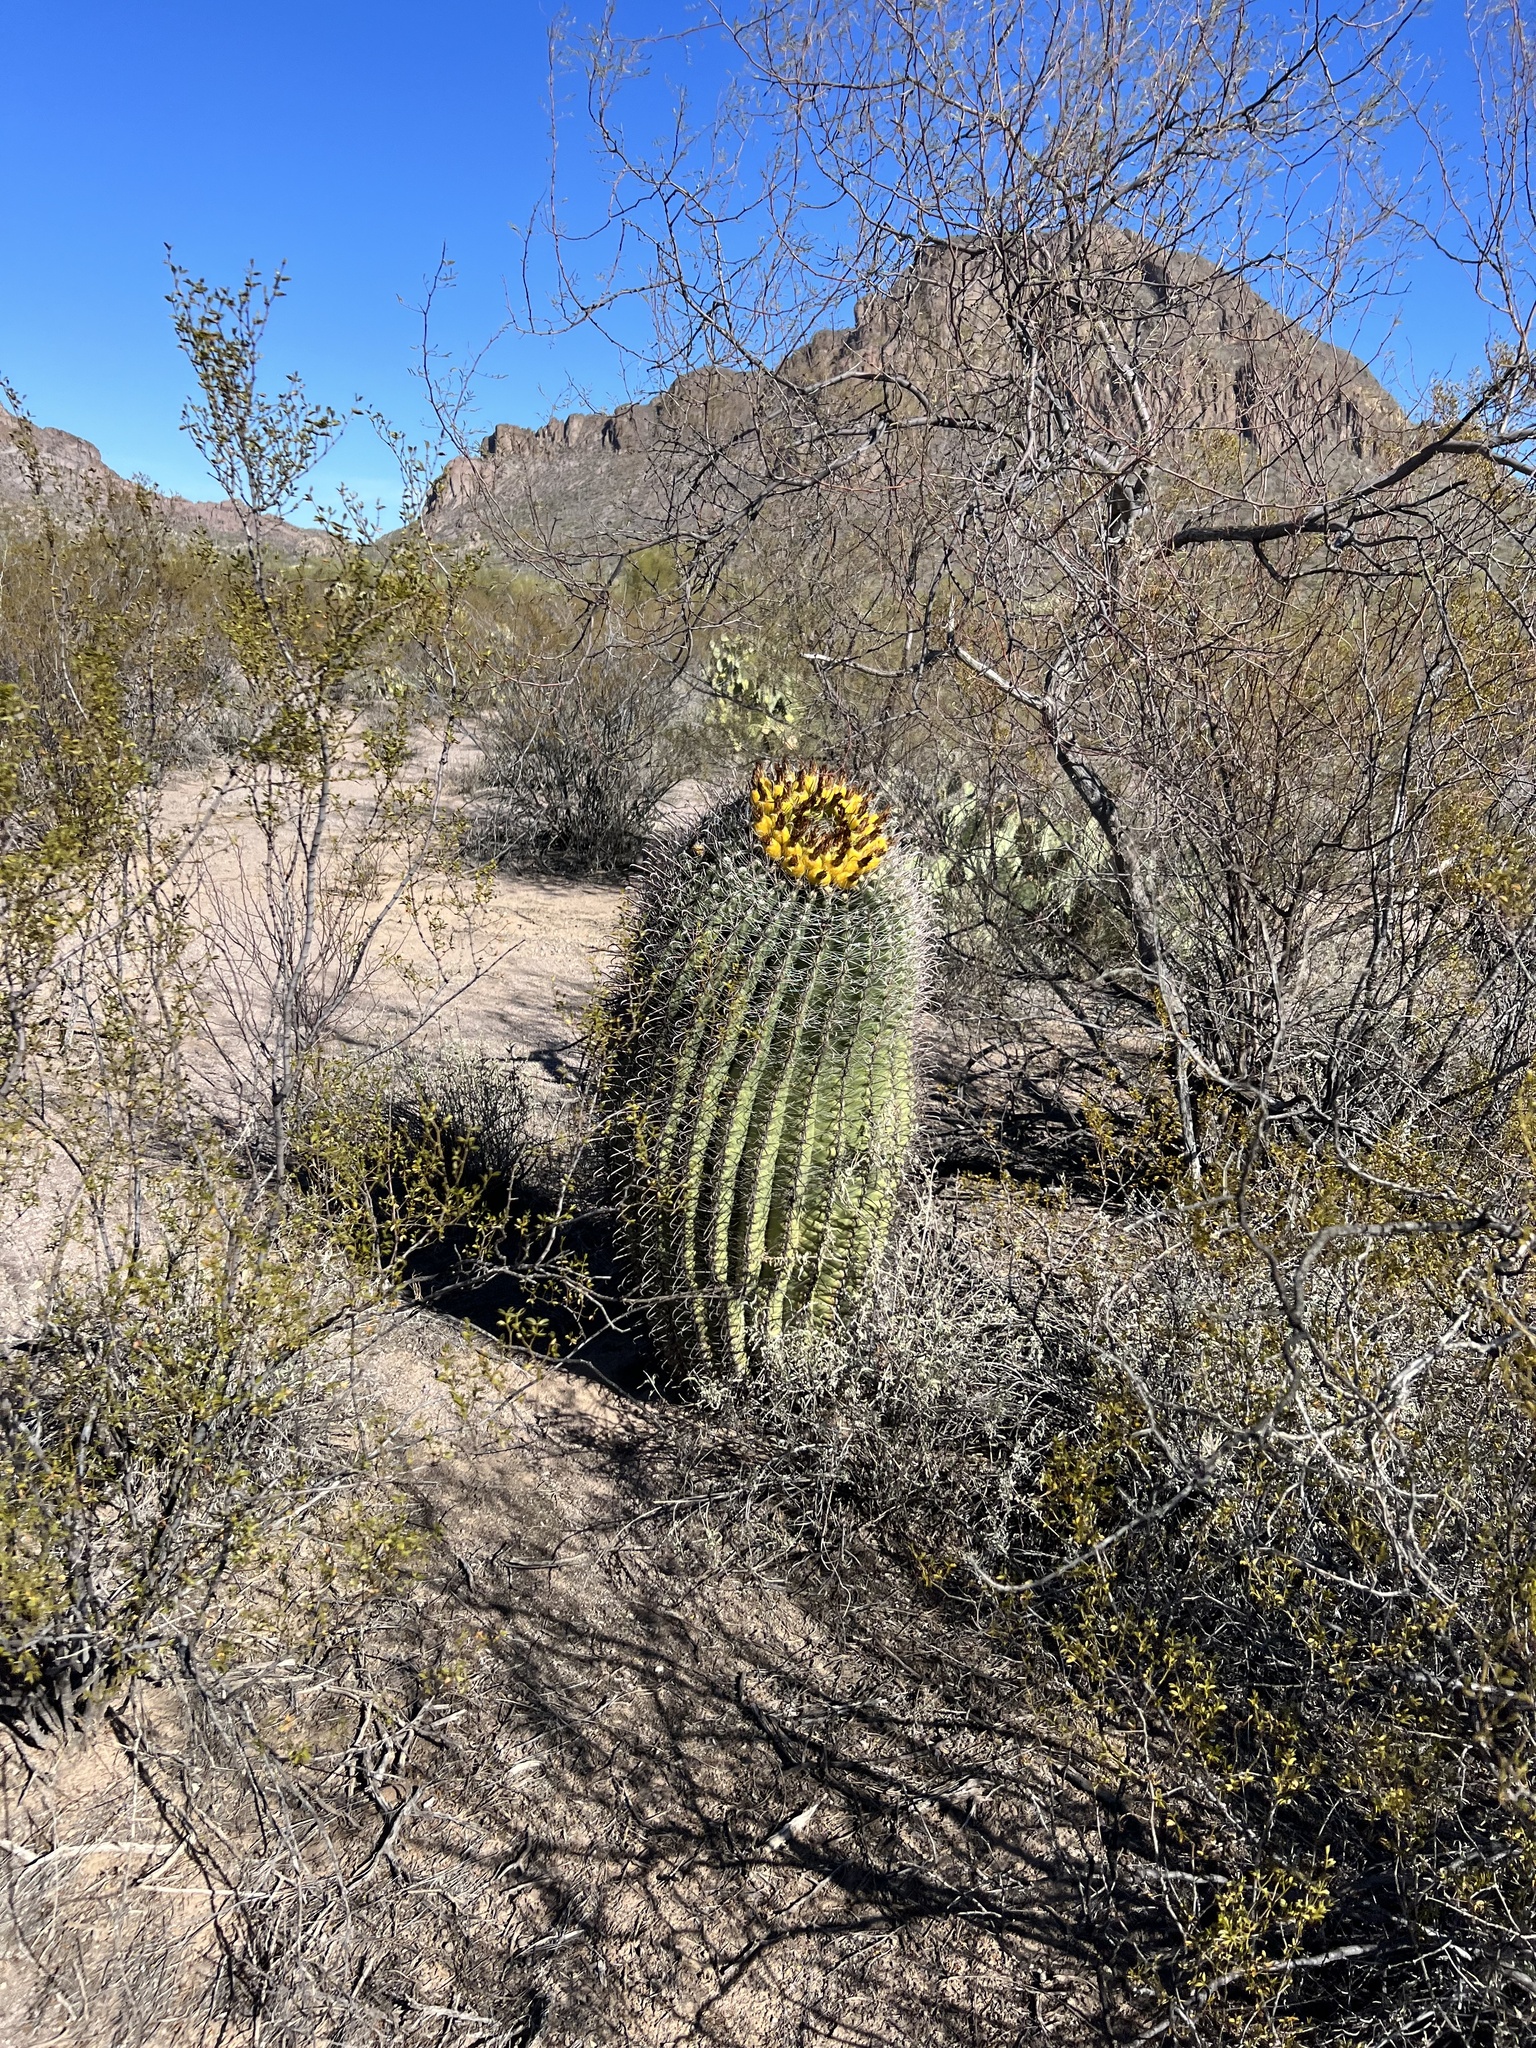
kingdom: Plantae
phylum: Tracheophyta
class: Magnoliopsida
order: Caryophyllales
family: Cactaceae
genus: Ferocactus
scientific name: Ferocactus wislizeni
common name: Candy barrel cactus
